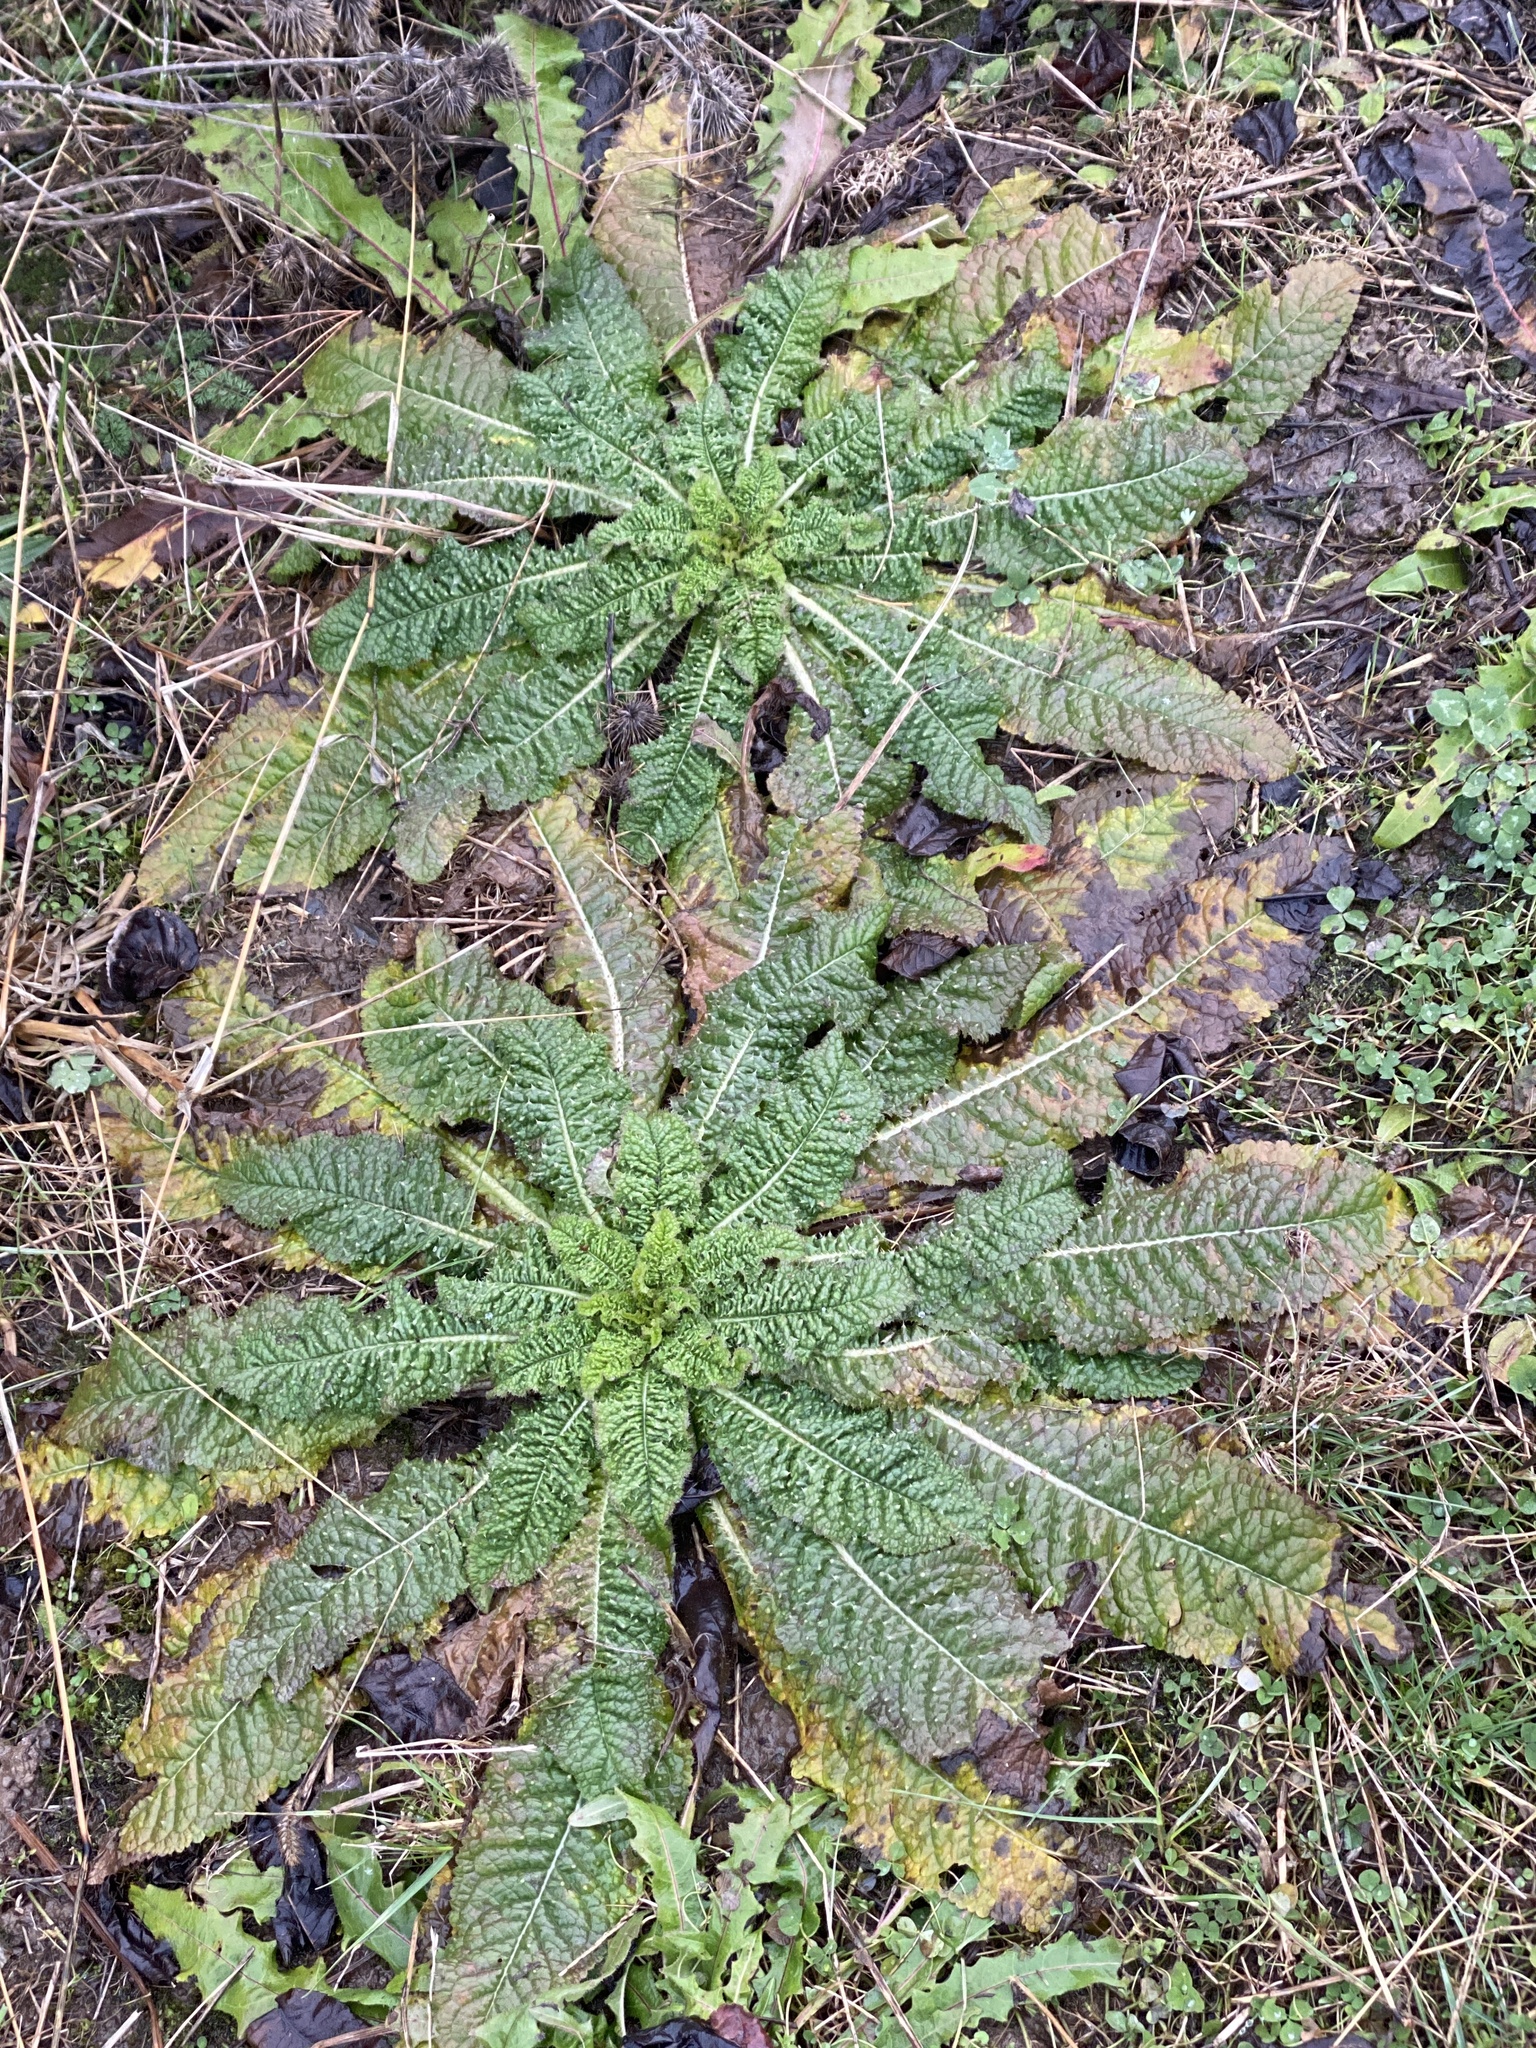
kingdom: Plantae
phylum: Tracheophyta
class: Magnoliopsida
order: Dipsacales
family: Caprifoliaceae
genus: Dipsacus
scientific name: Dipsacus fullonum
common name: Teasel
